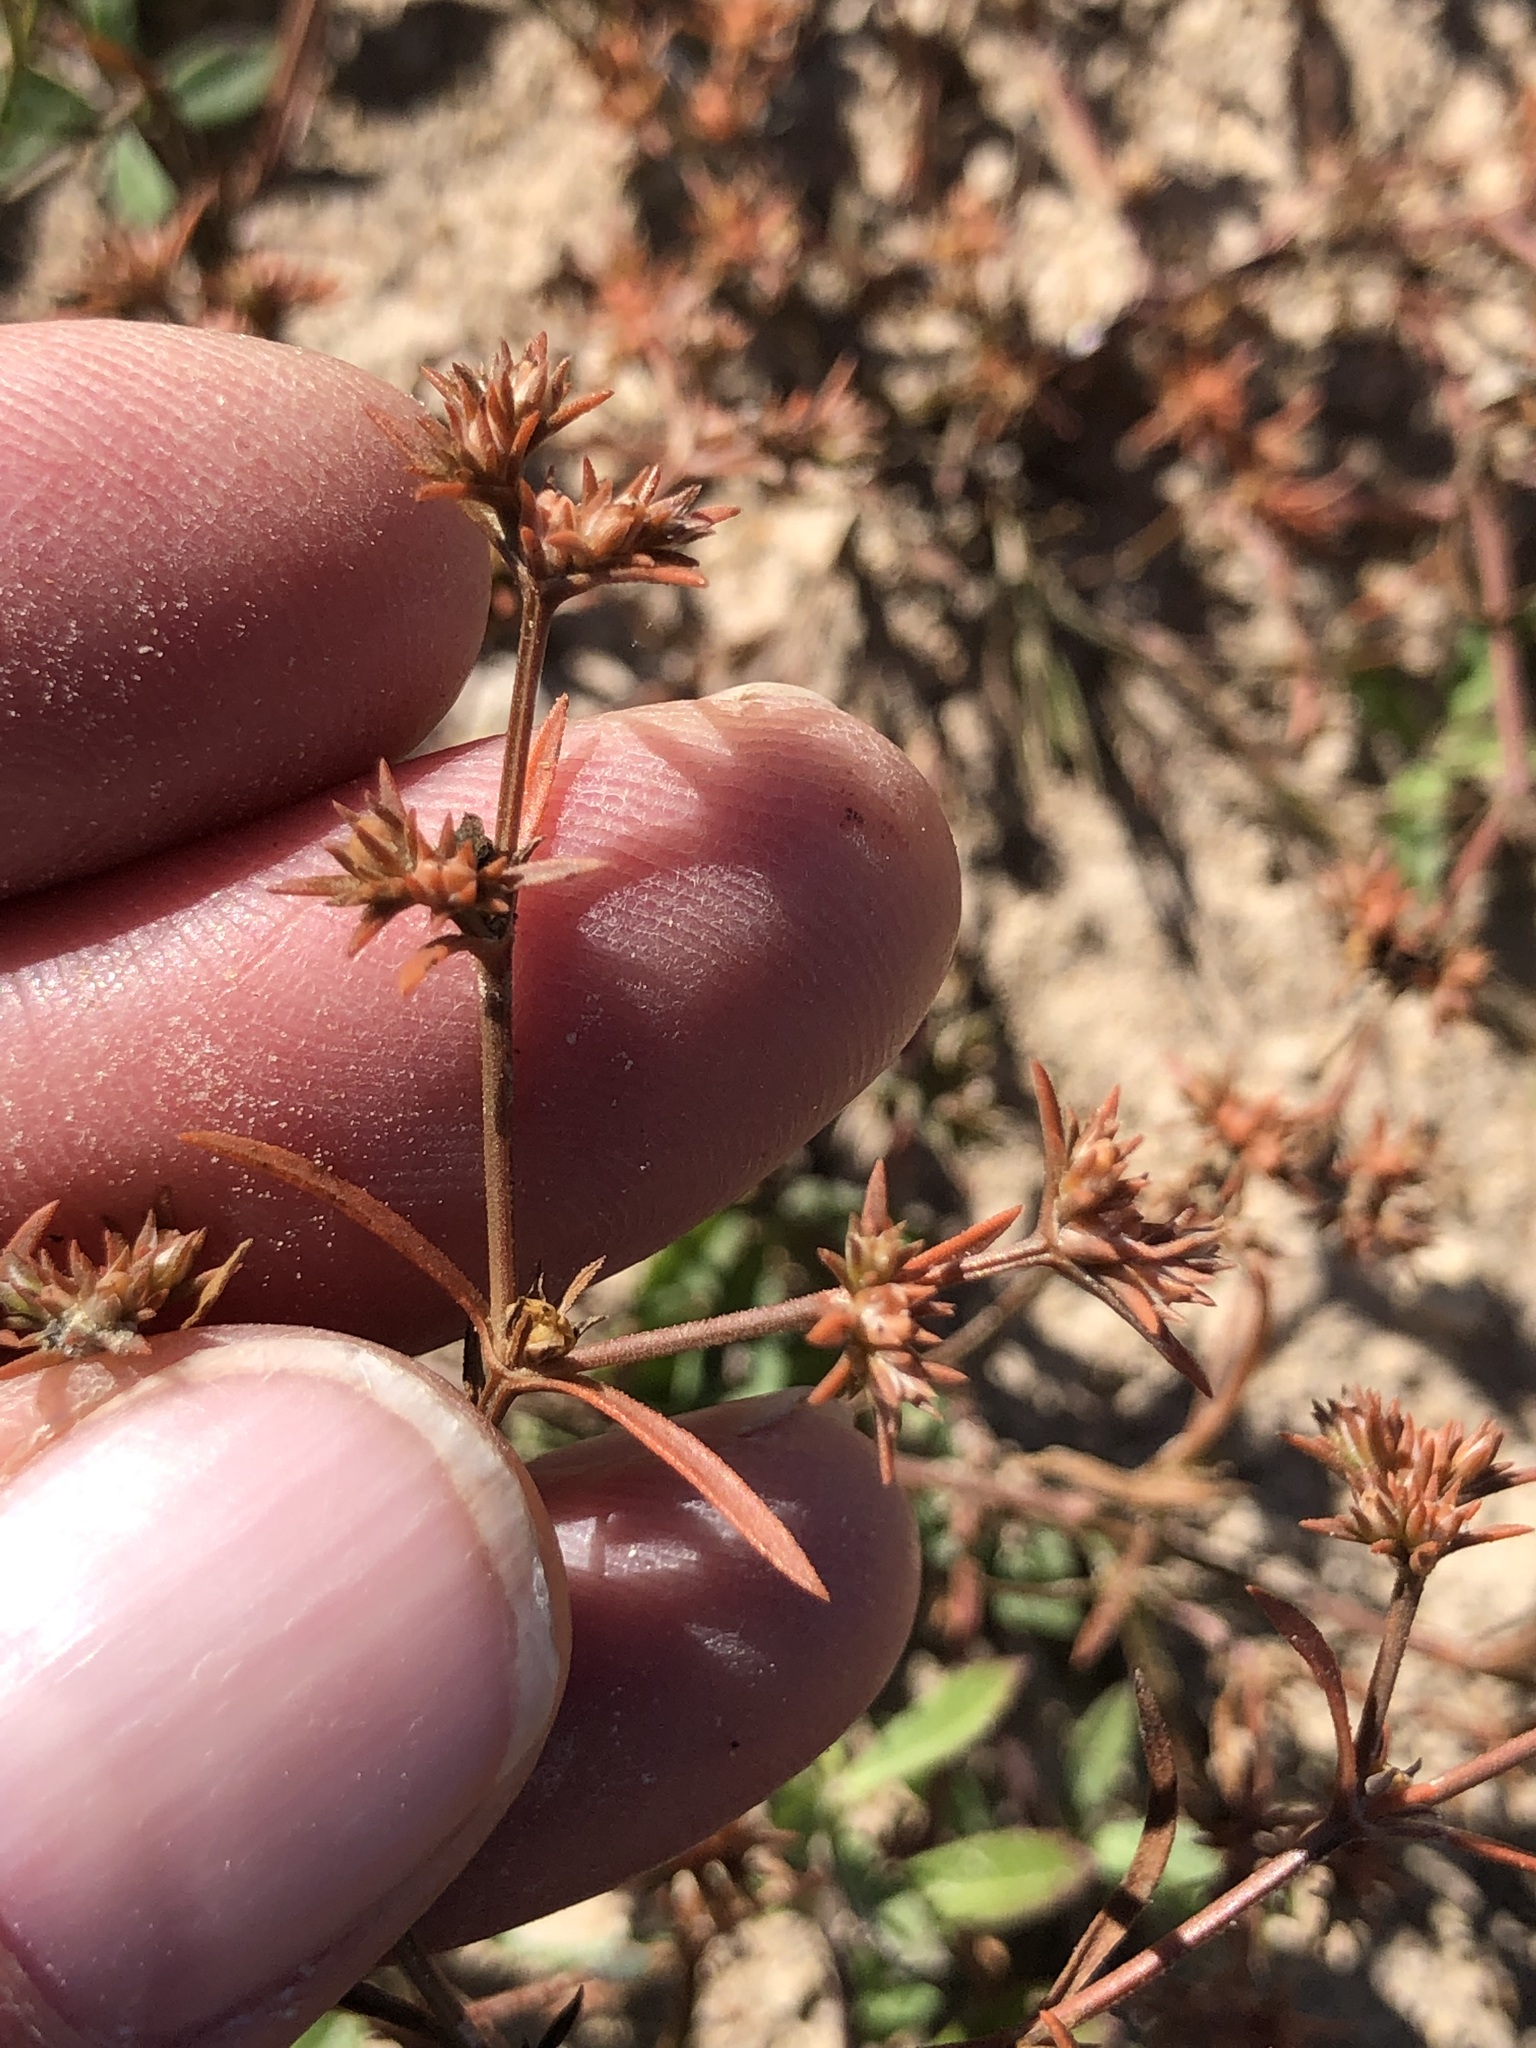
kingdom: Plantae
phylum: Tracheophyta
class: Magnoliopsida
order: Lamiales
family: Tetrachondraceae
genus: Polypremum
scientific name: Polypremum procumbens
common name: Juniper-leaf
